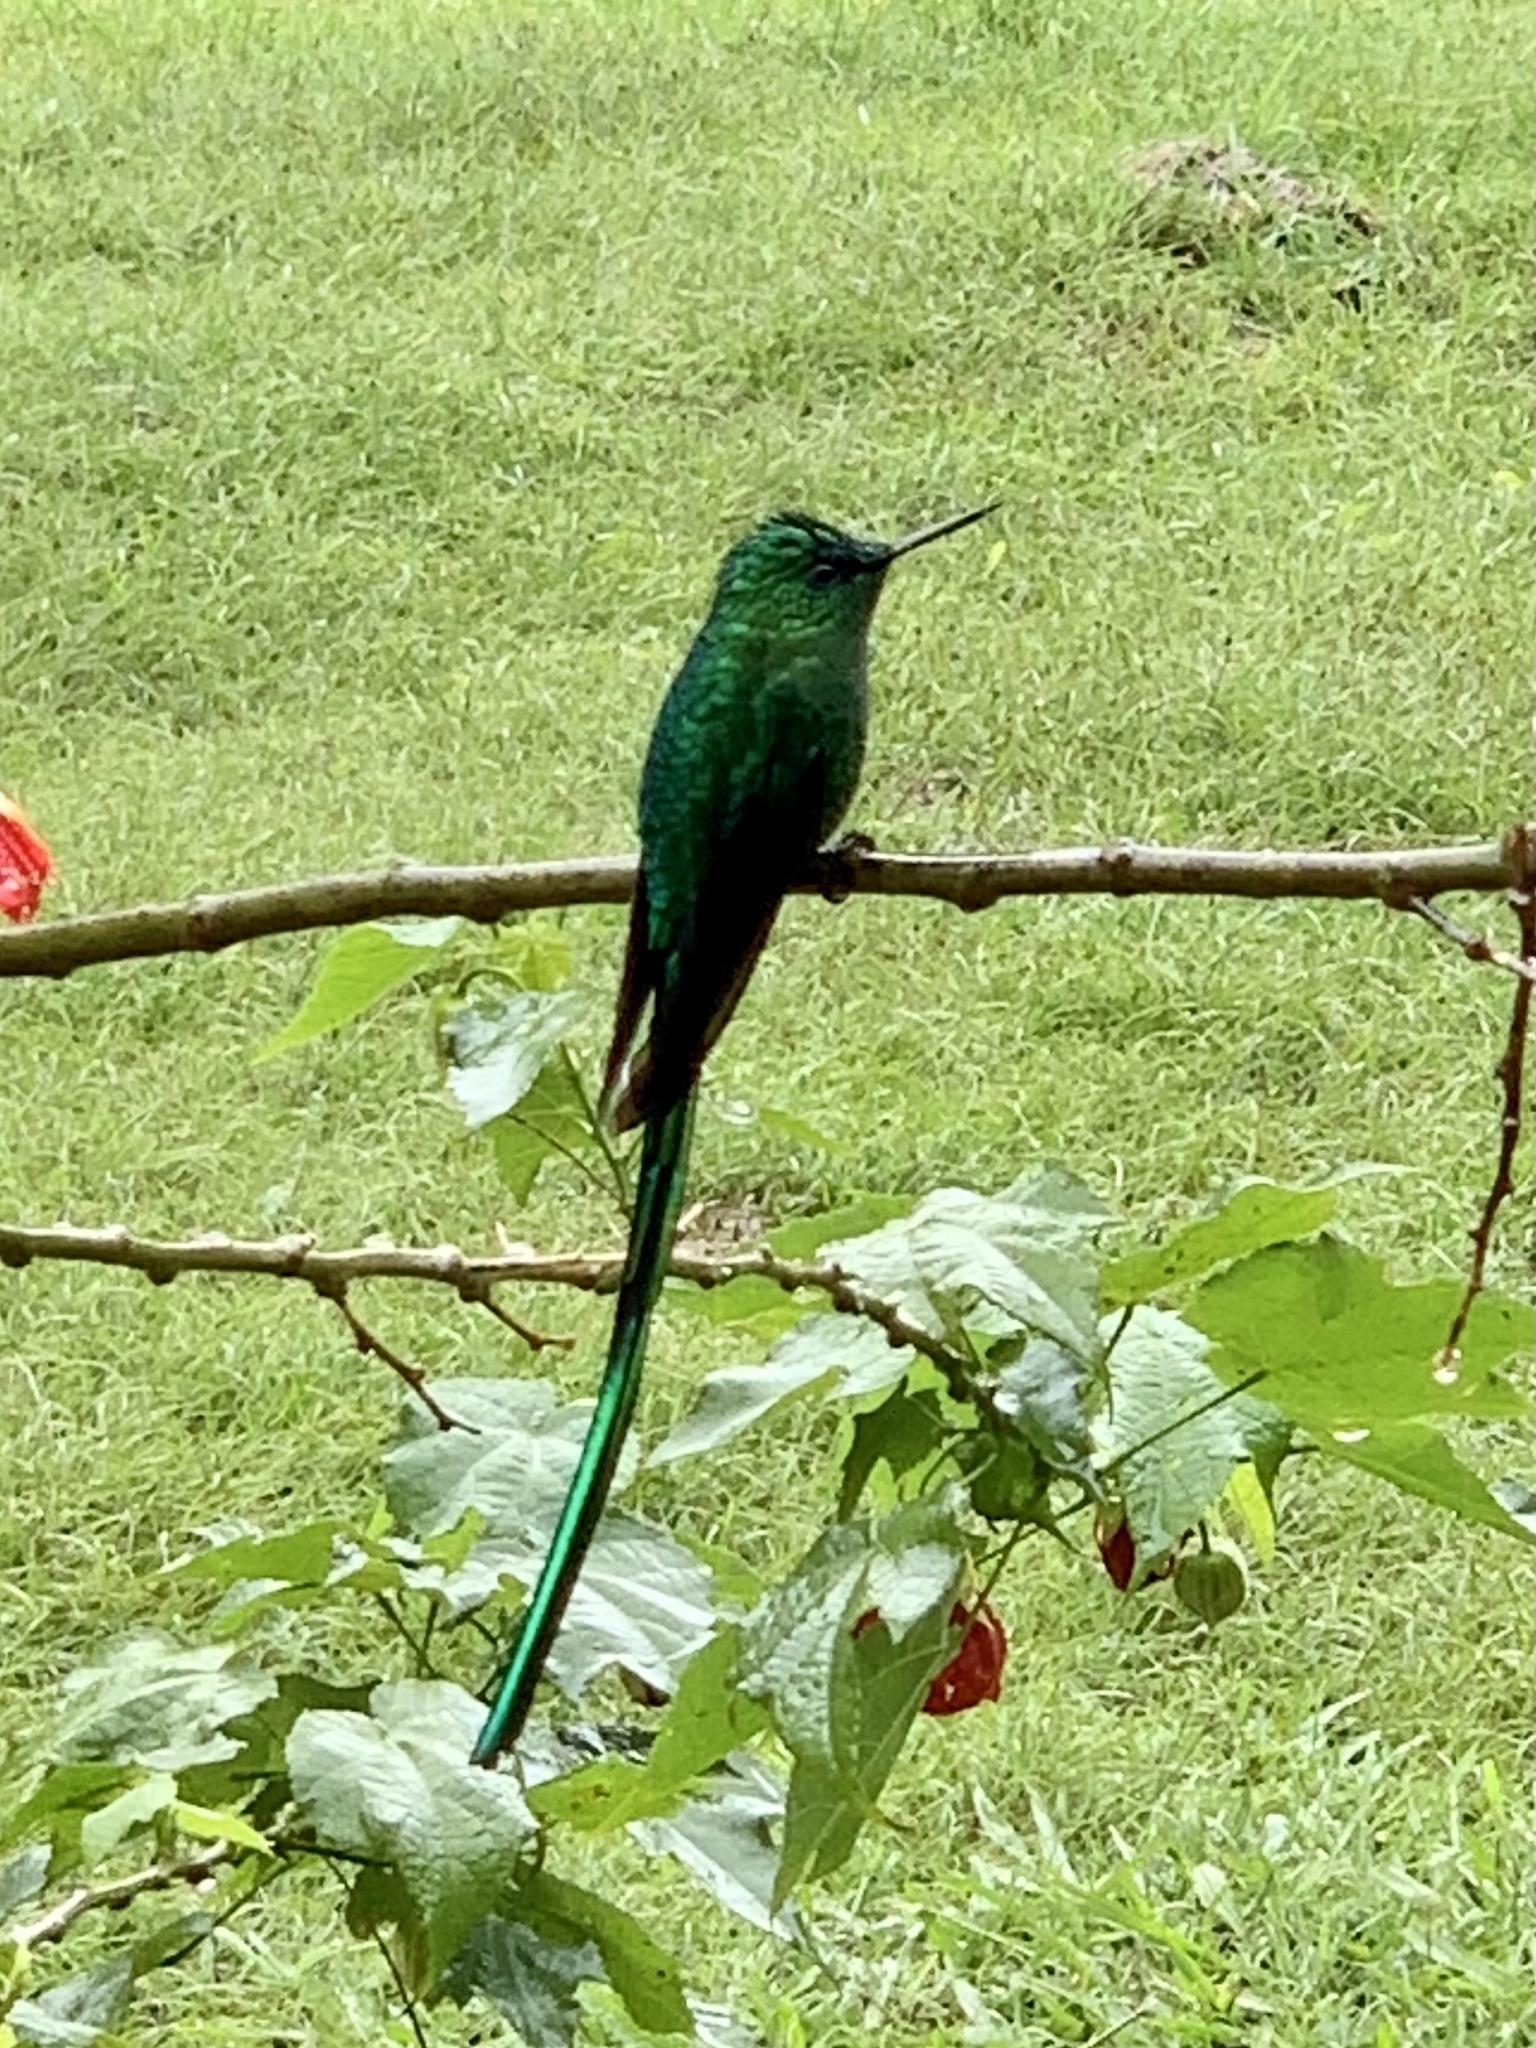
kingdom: Animalia
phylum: Chordata
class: Aves
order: Apodiformes
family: Trochilidae
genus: Aglaiocercus
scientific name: Aglaiocercus kingii
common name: Long-tailed sylph
